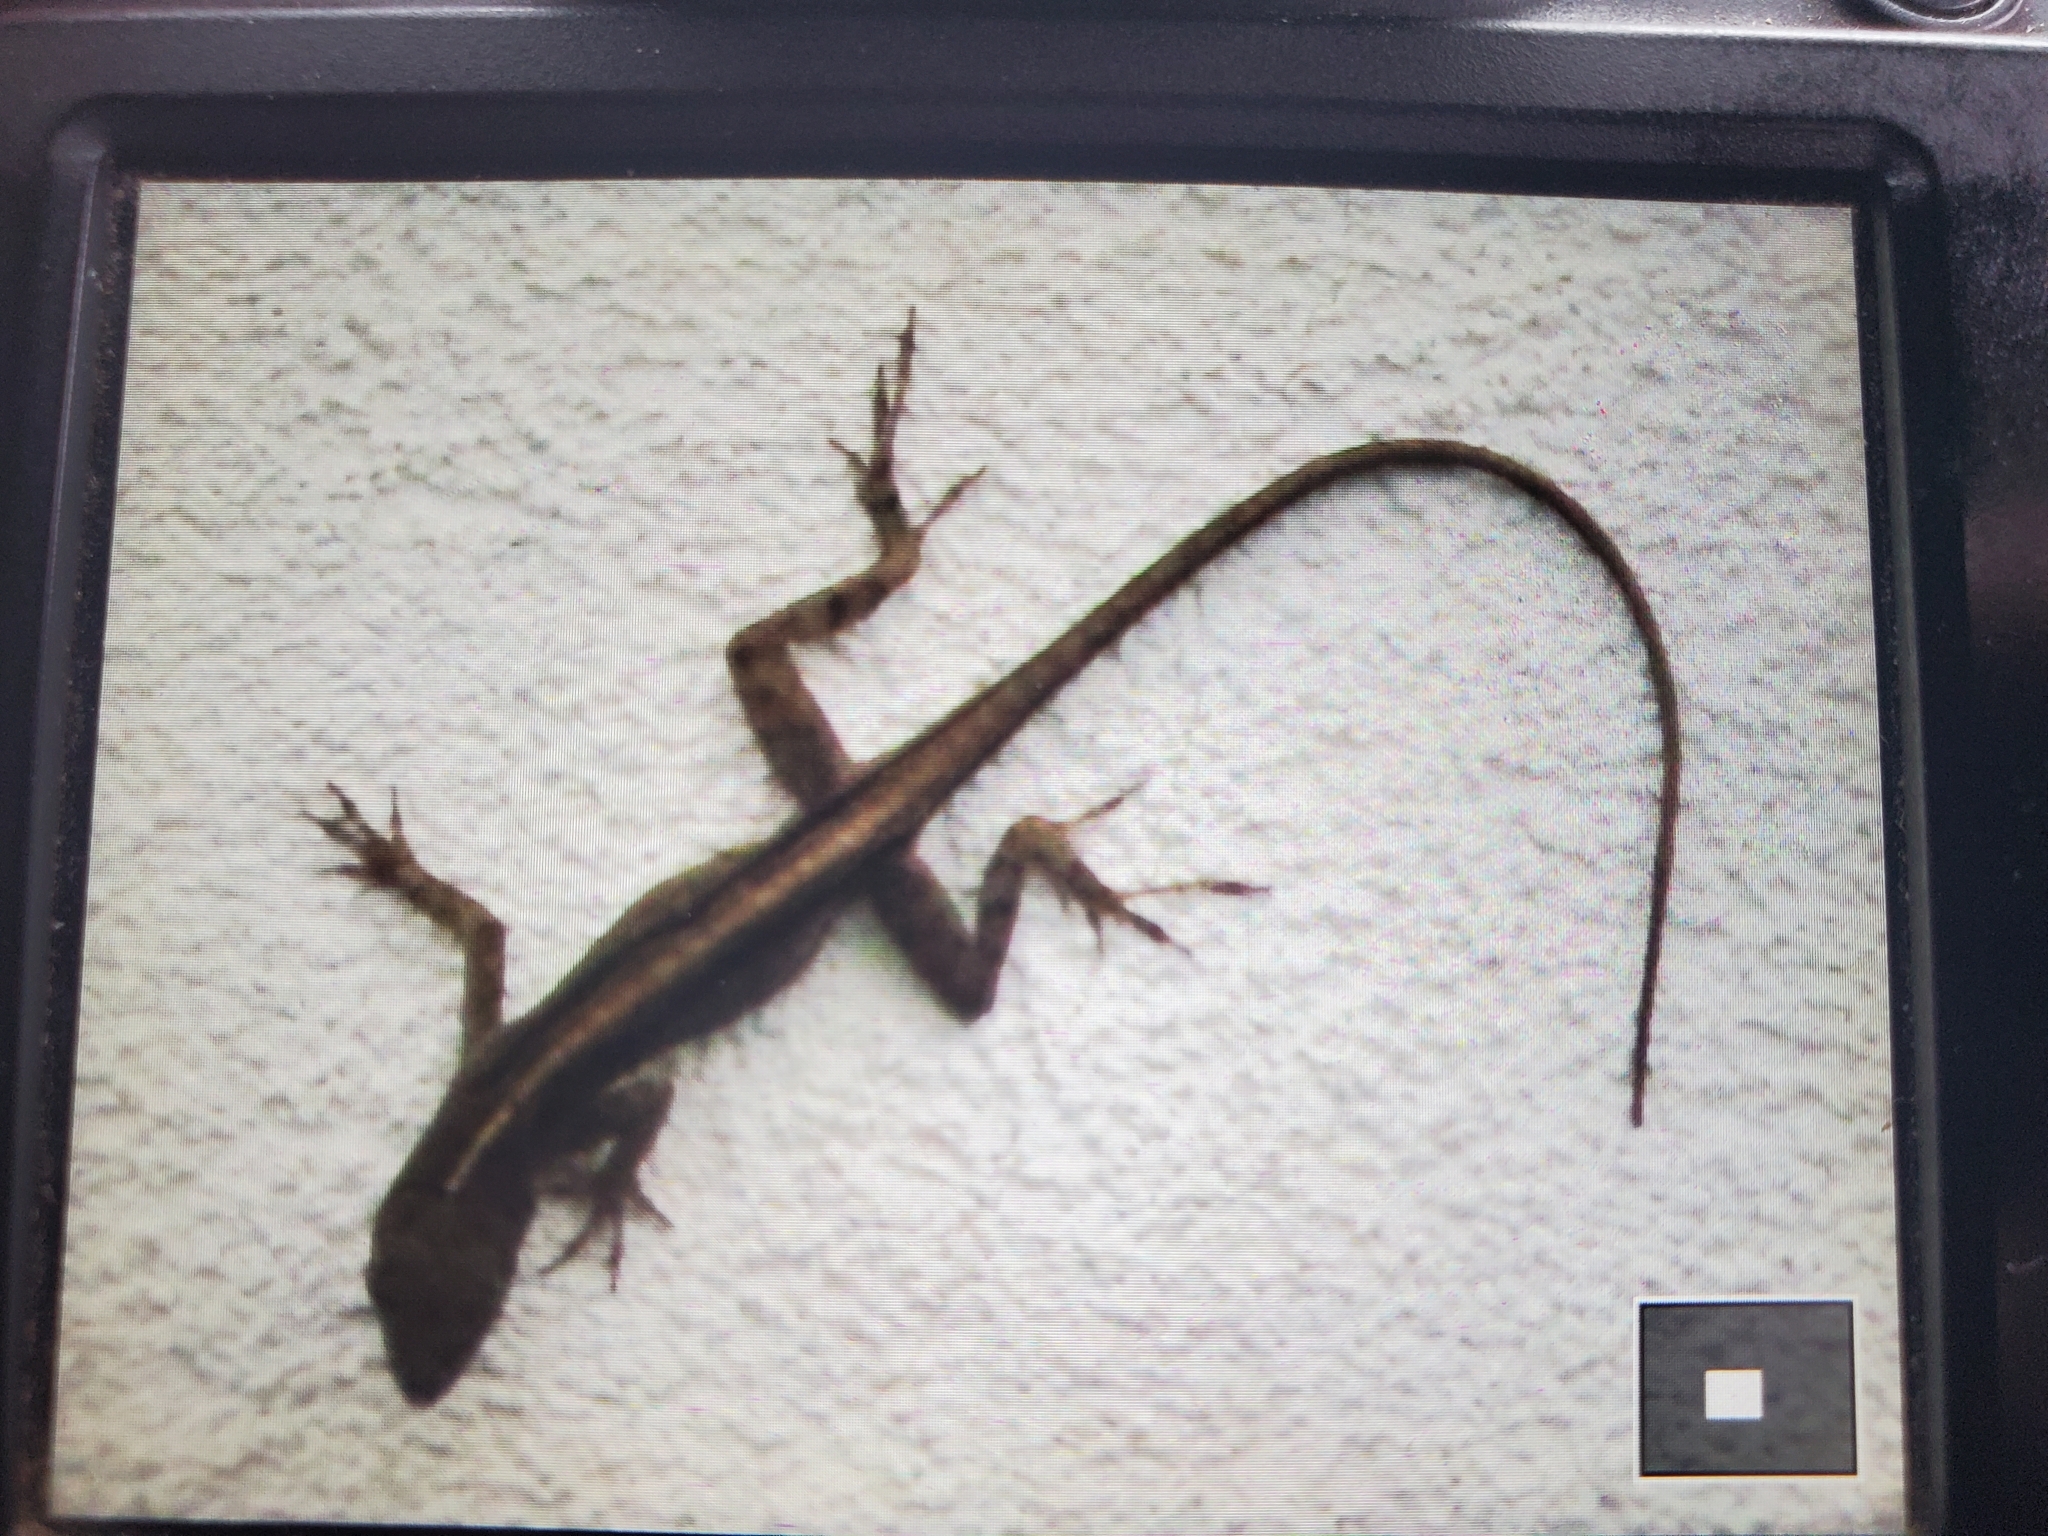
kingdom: Animalia
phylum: Chordata
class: Squamata
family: Dactyloidae
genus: Anolis
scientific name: Anolis sagrei
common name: Brown anole
